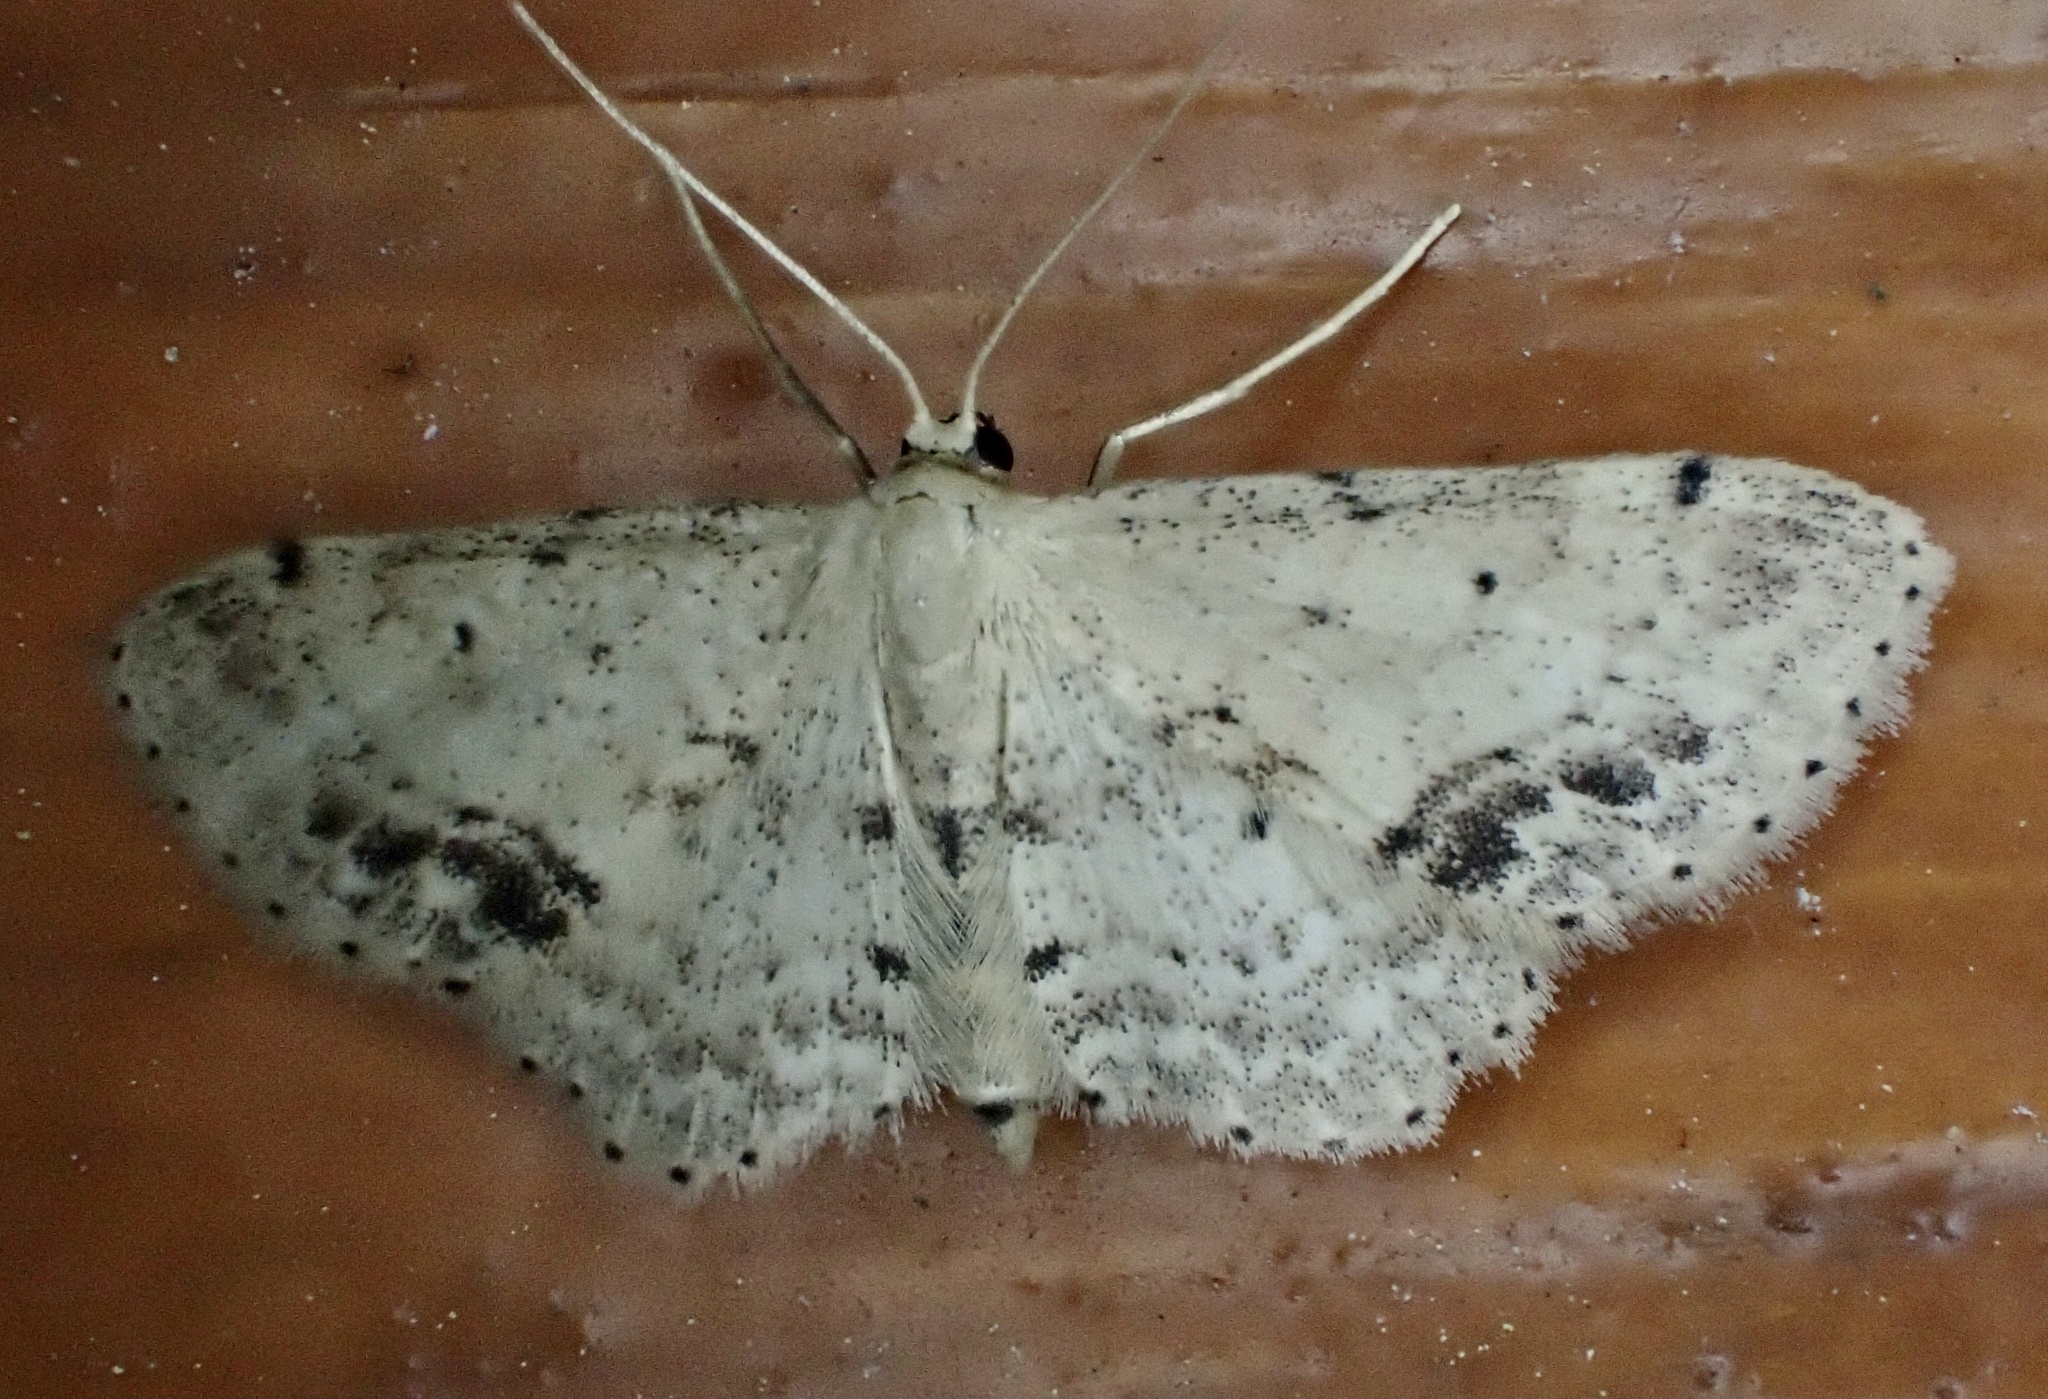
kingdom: Animalia
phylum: Arthropoda
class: Insecta
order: Lepidoptera
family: Geometridae
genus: Idaea
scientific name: Idaea dimidiata
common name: Single-dotted wave
